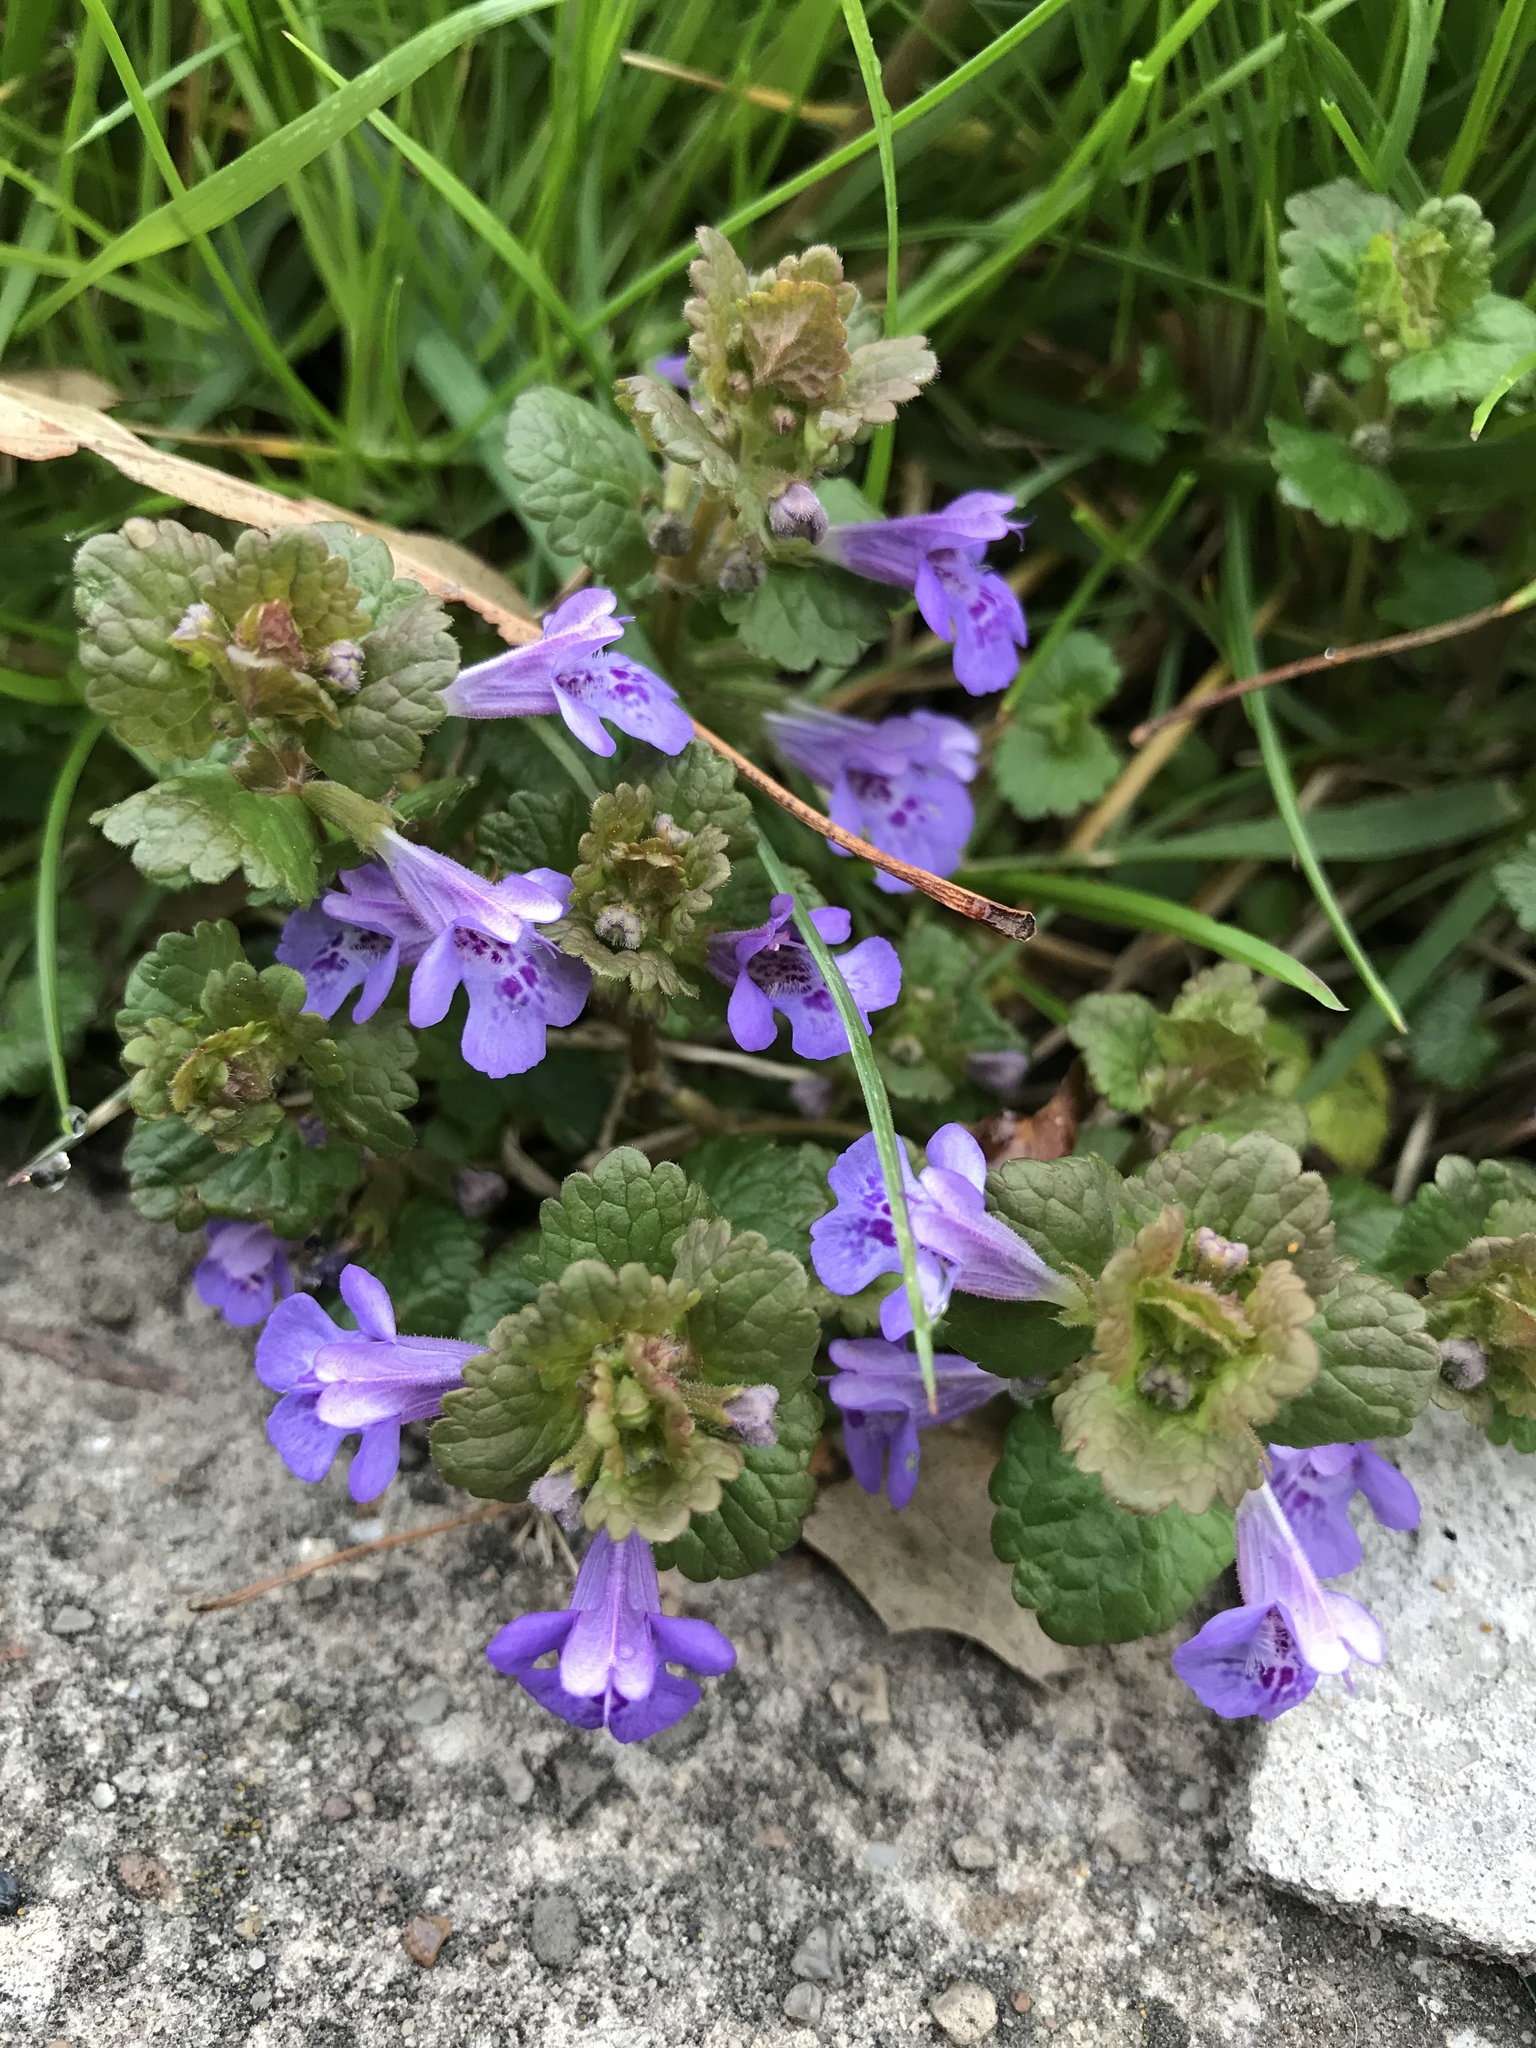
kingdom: Plantae
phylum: Tracheophyta
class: Magnoliopsida
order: Lamiales
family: Lamiaceae
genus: Glechoma
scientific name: Glechoma hederacea
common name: Ground ivy
